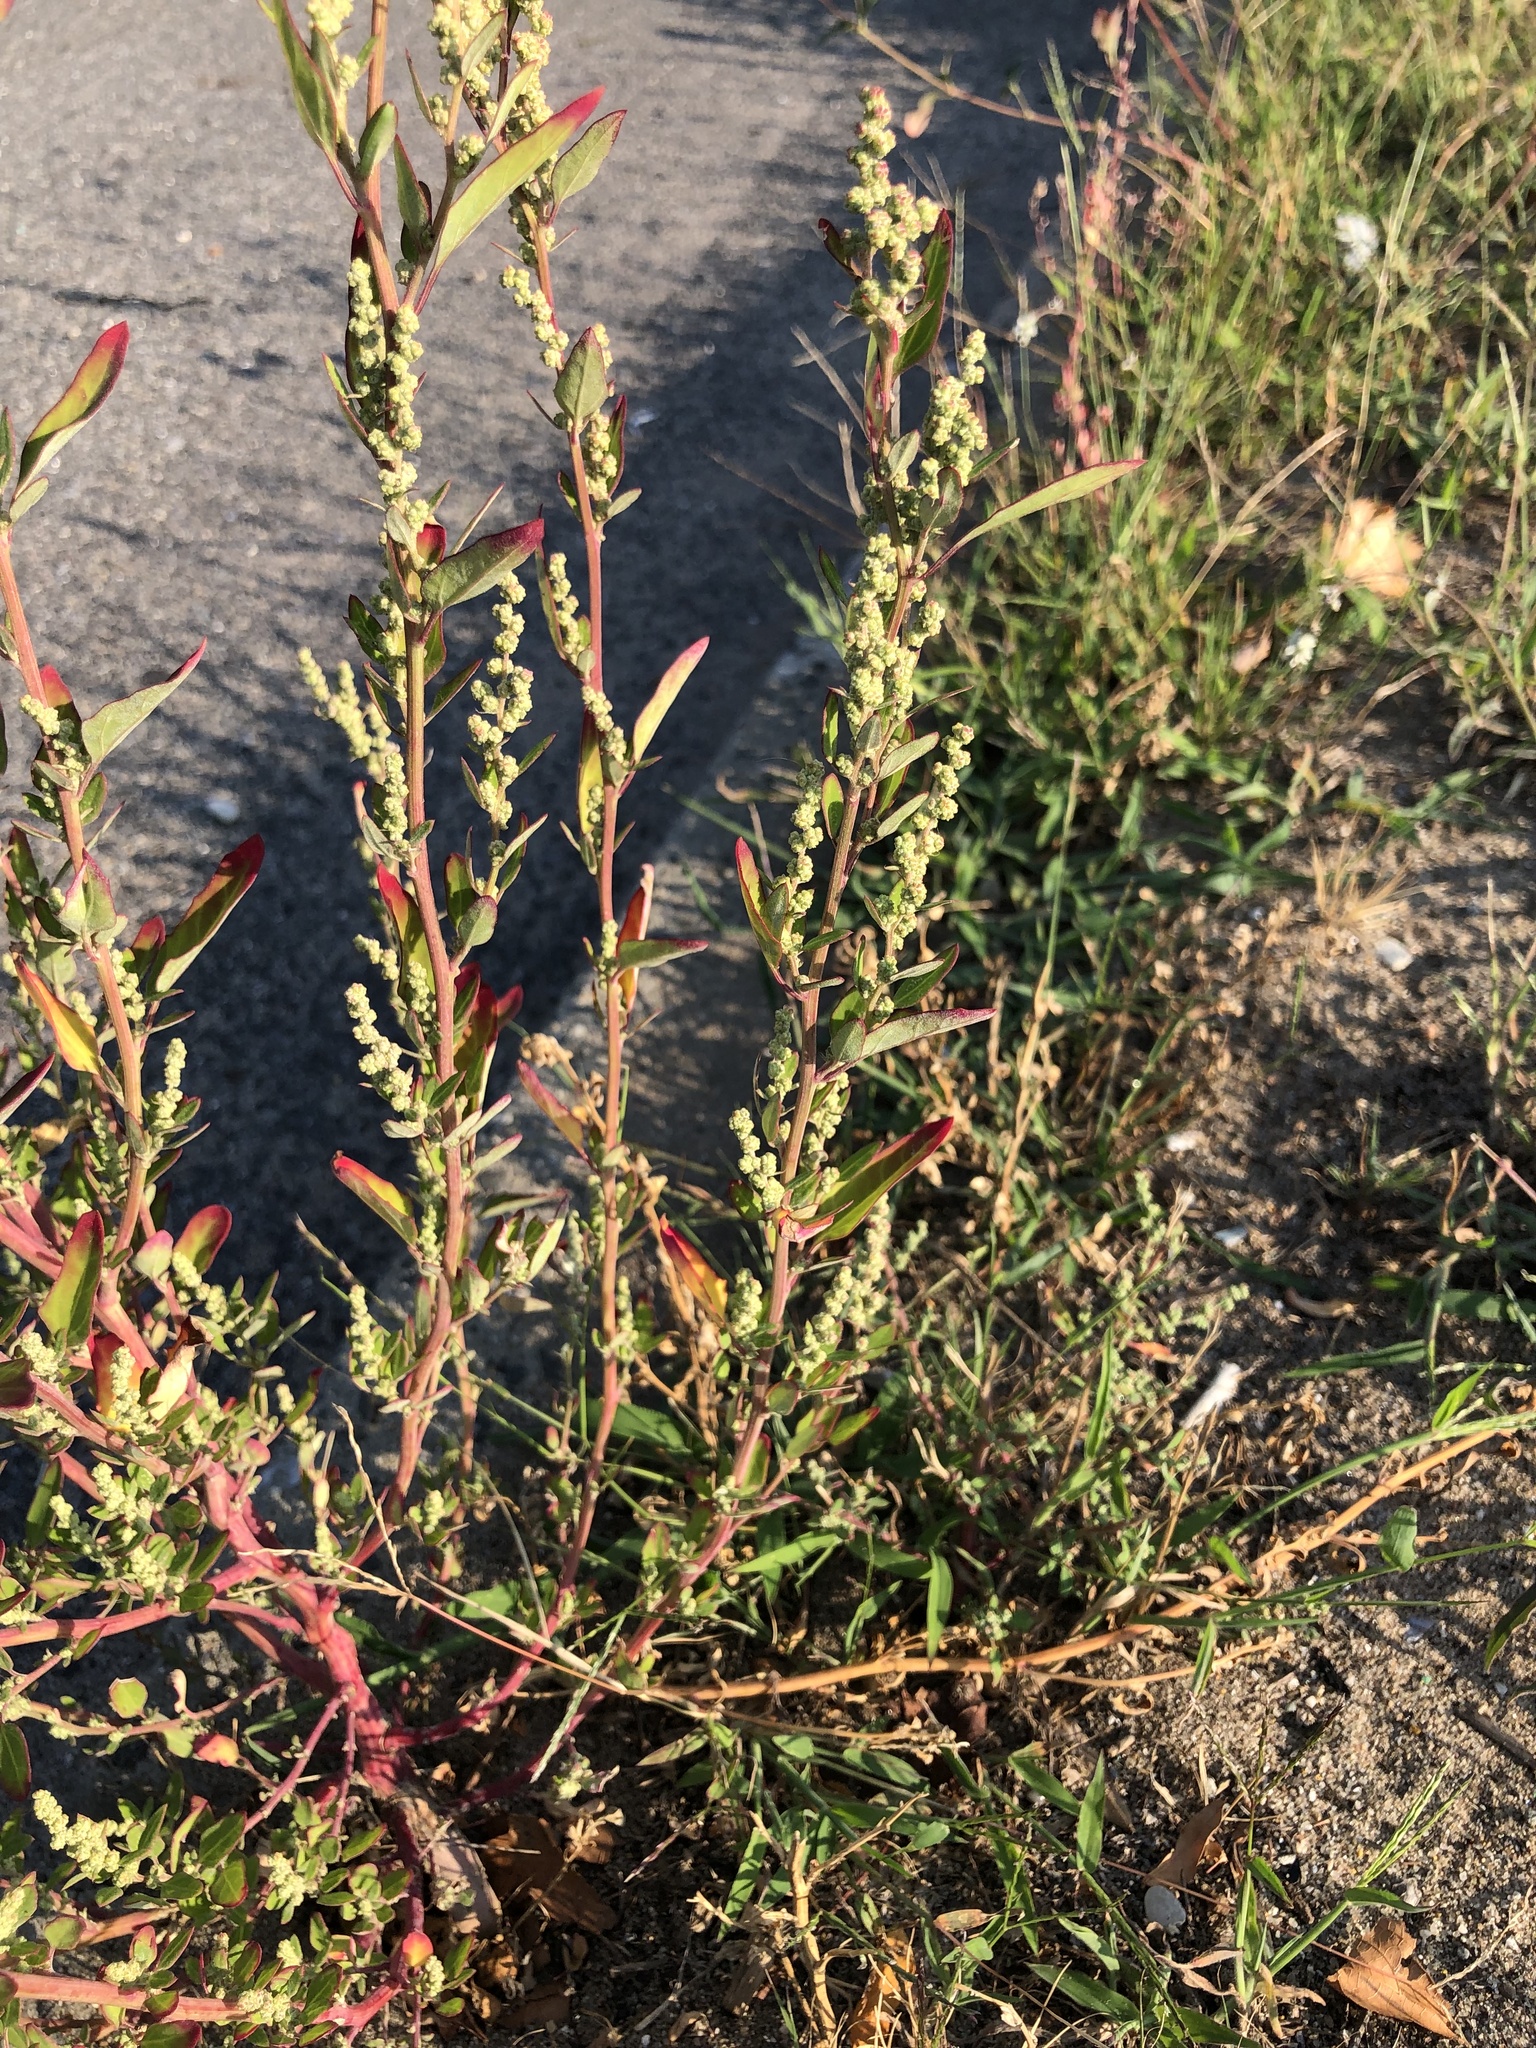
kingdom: Plantae
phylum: Tracheophyta
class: Magnoliopsida
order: Caryophyllales
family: Amaranthaceae
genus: Chenopodium
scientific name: Chenopodium album
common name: Fat-hen
